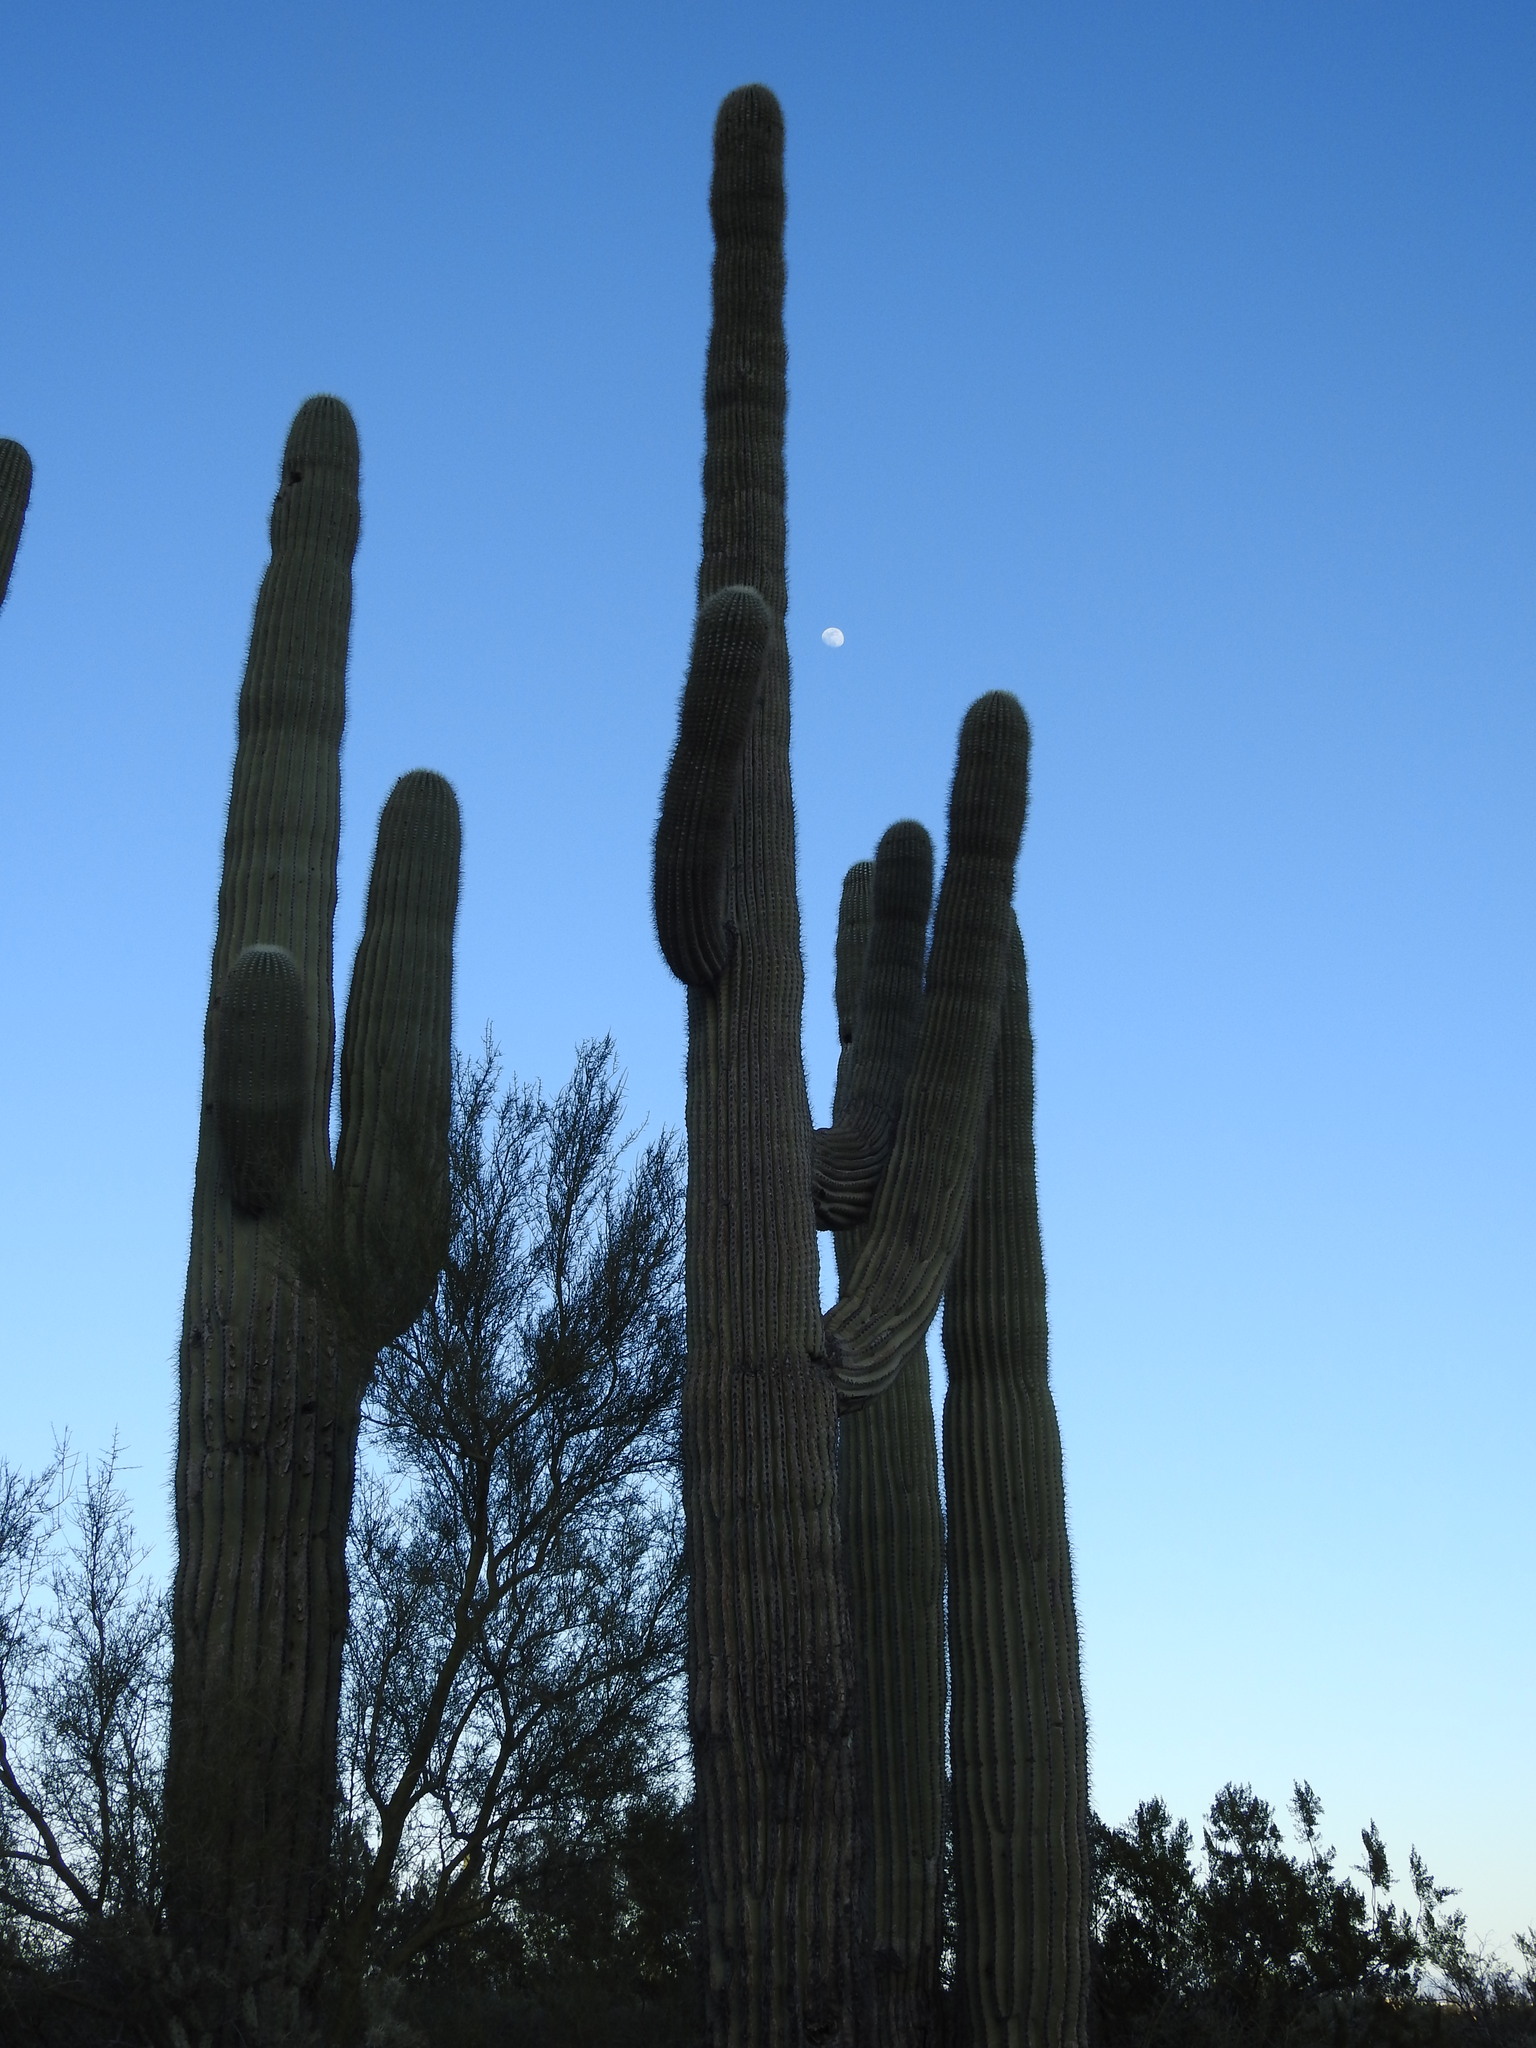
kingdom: Plantae
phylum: Tracheophyta
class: Magnoliopsida
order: Caryophyllales
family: Cactaceae
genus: Carnegiea
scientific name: Carnegiea gigantea
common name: Saguaro
